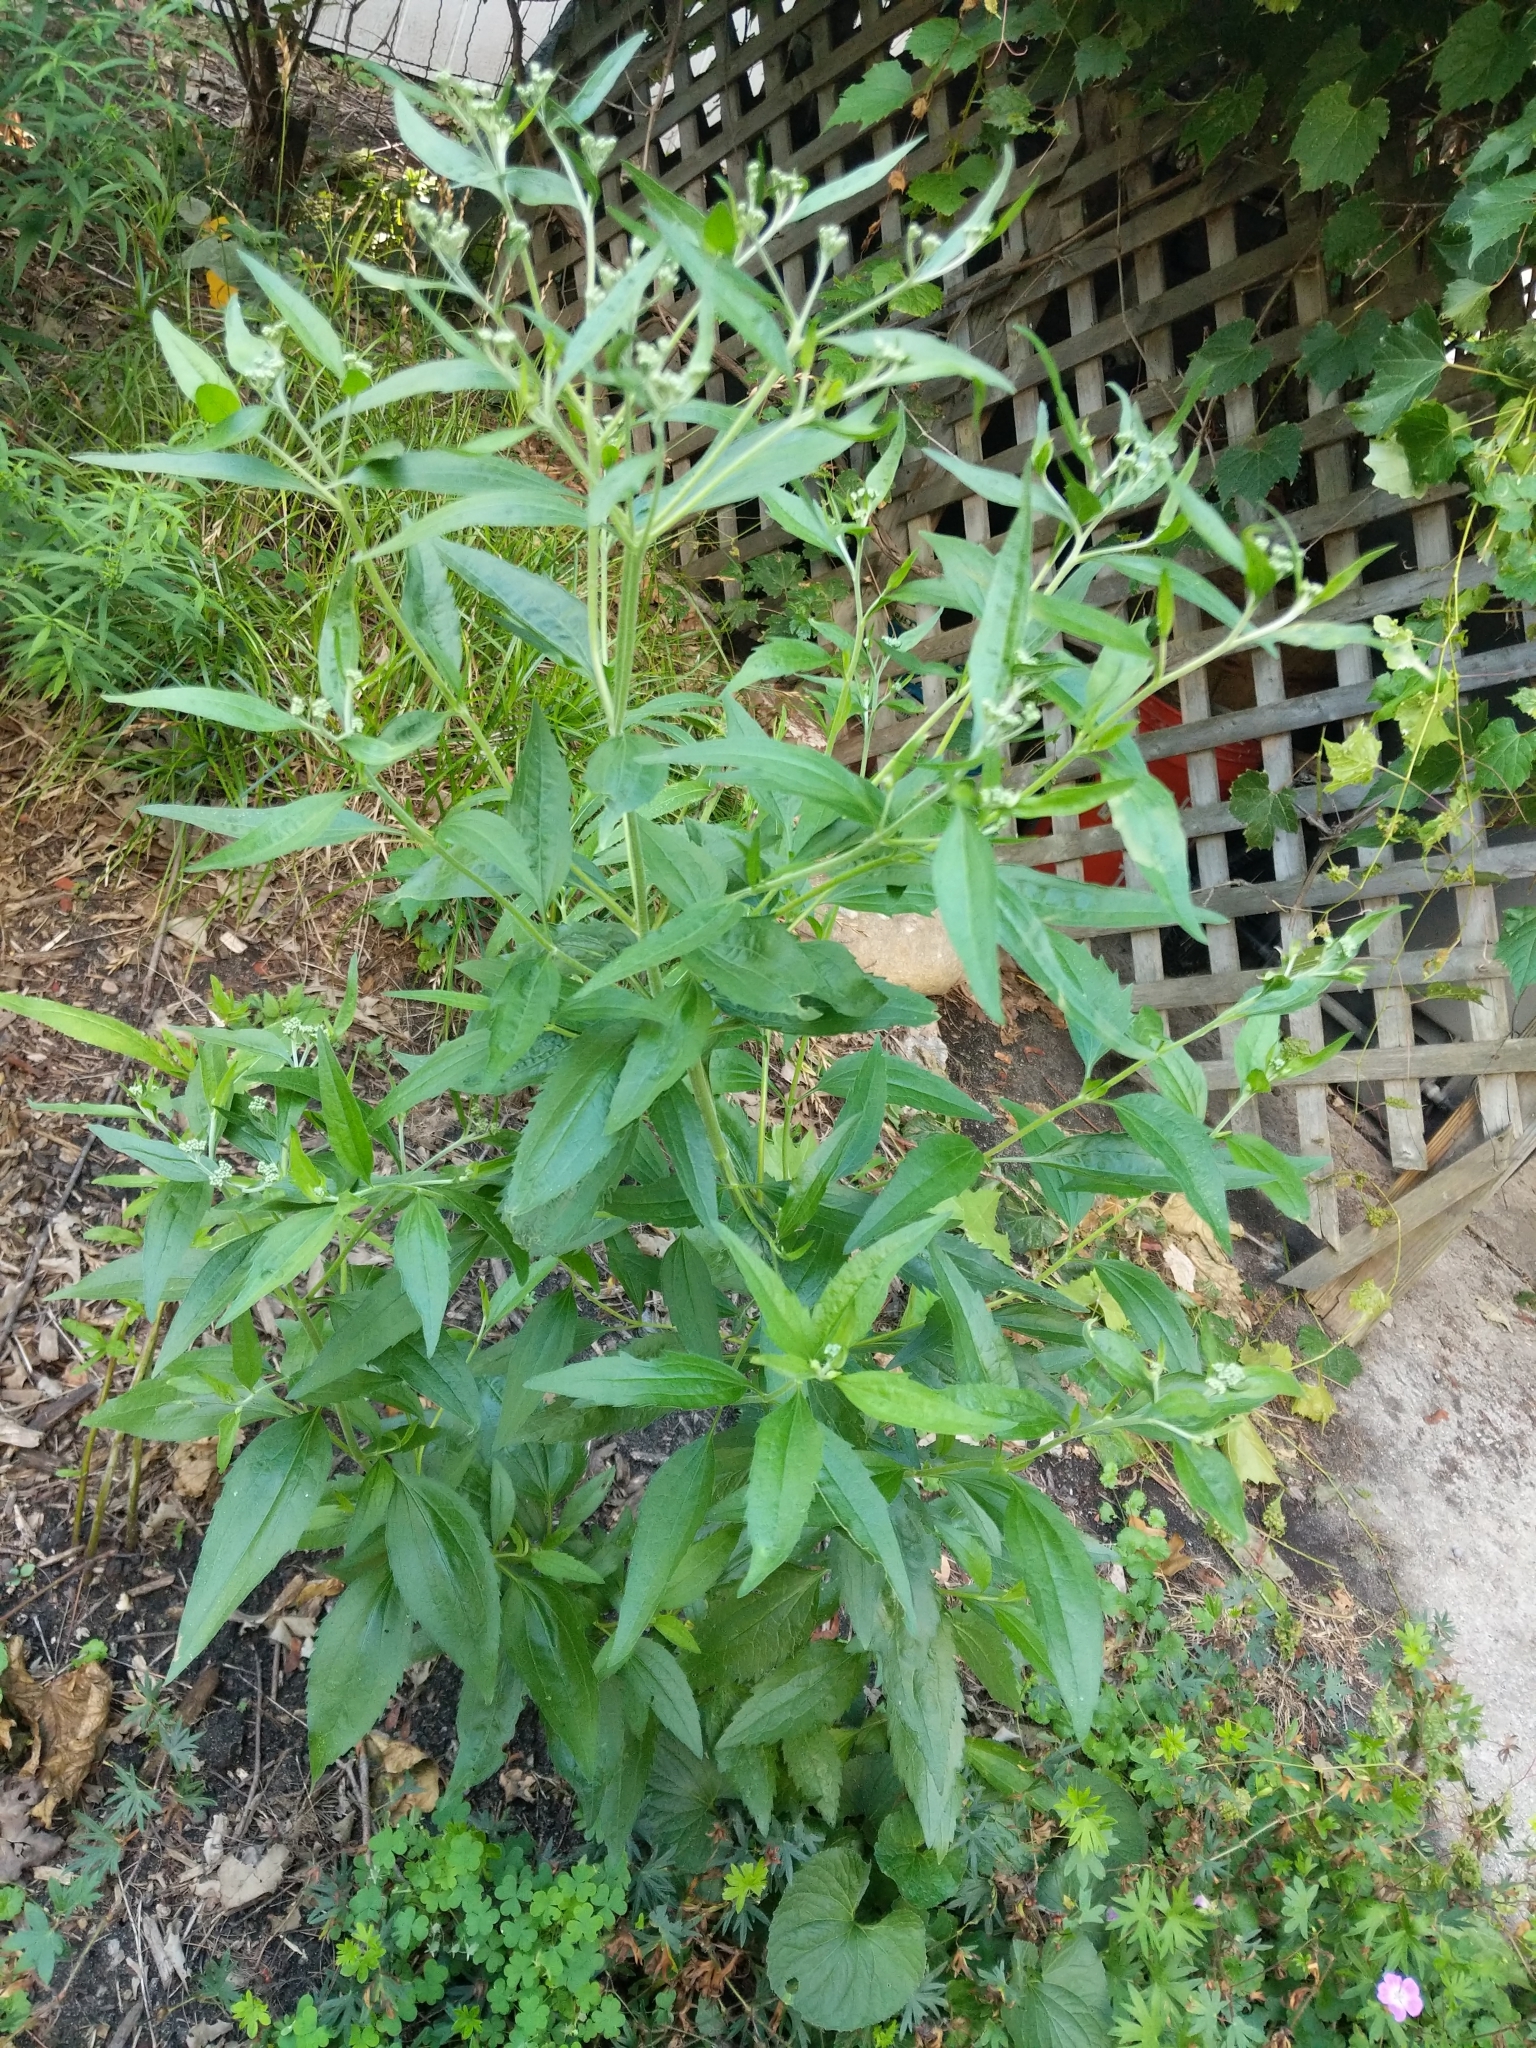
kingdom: Plantae
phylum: Tracheophyta
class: Magnoliopsida
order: Asterales
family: Asteraceae
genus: Eupatorium
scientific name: Eupatorium serotinum
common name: Late boneset
